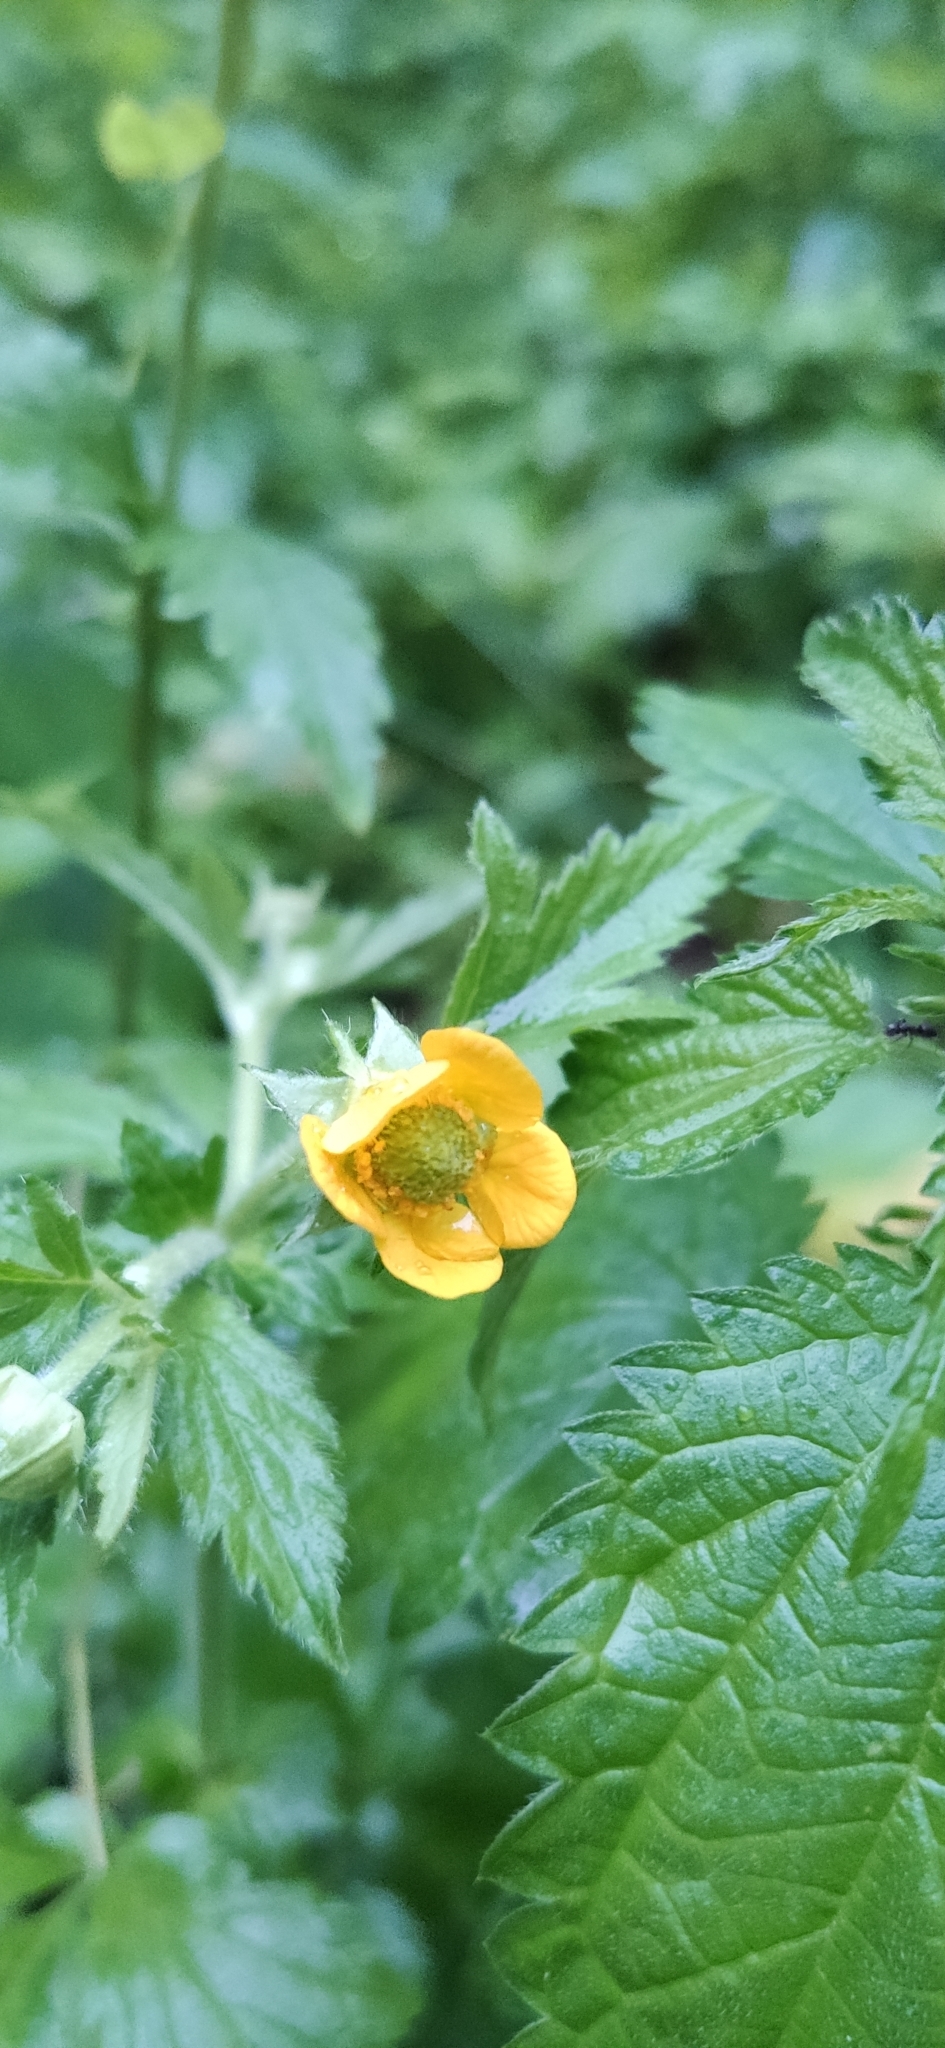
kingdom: Plantae
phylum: Tracheophyta
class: Magnoliopsida
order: Rosales
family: Rosaceae
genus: Geum
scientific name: Geum aleppicum
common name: Yellow avens
